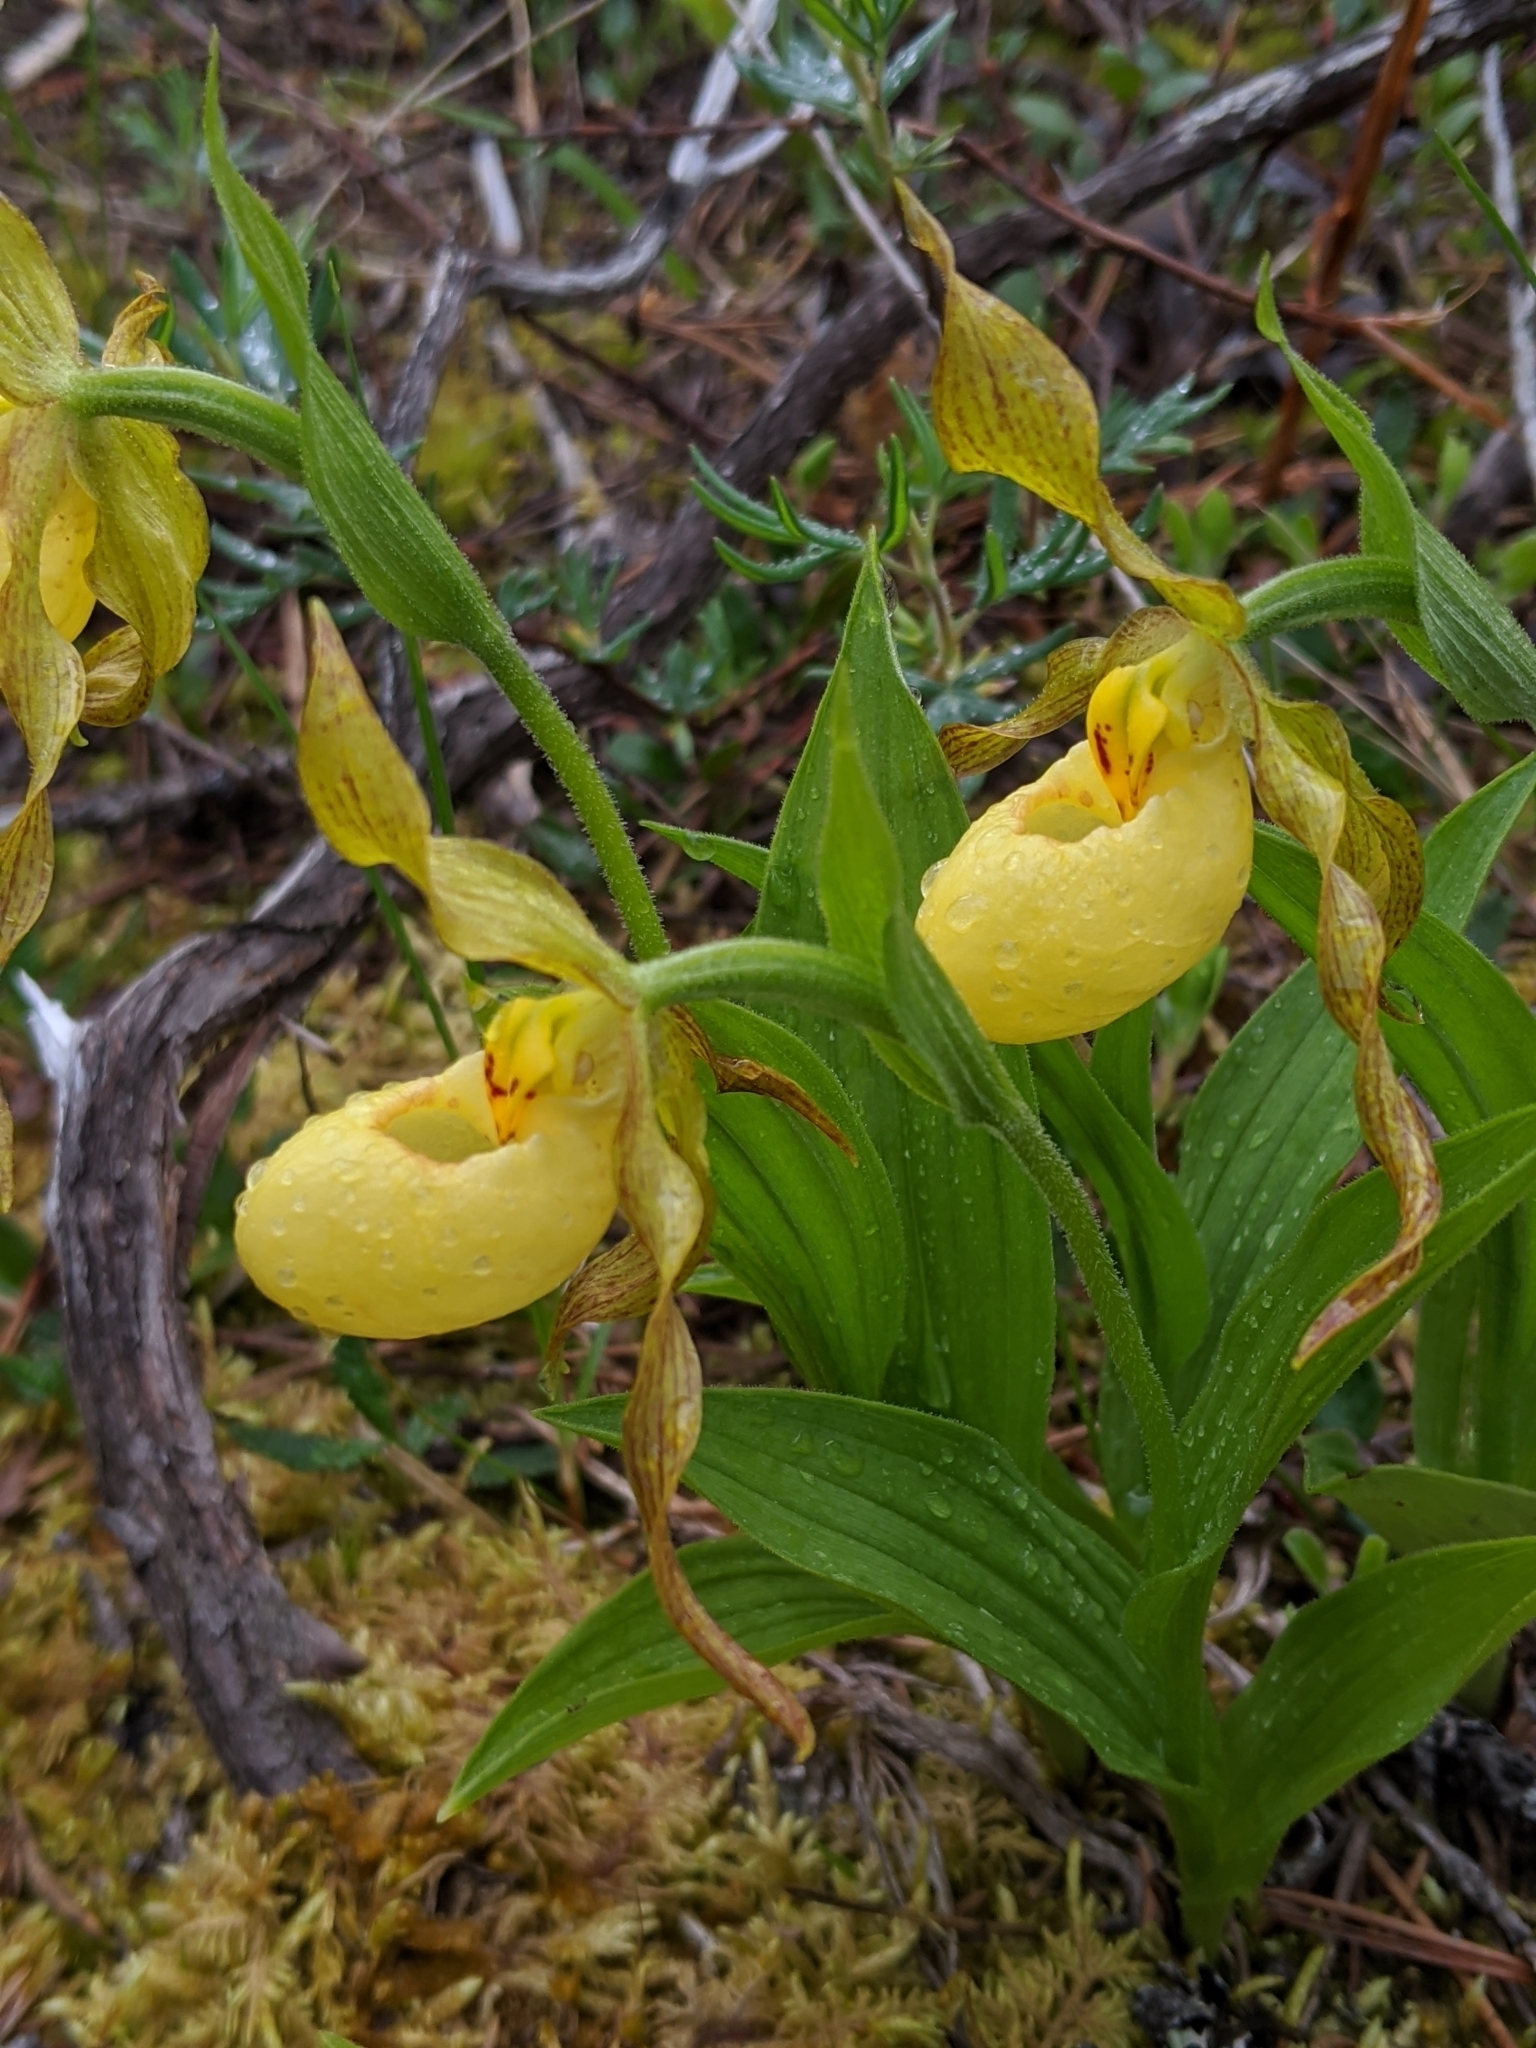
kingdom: Plantae
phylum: Tracheophyta
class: Liliopsida
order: Asparagales
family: Orchidaceae
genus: Cypripedium
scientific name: Cypripedium parviflorum
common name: American yellow lady's-slipper
